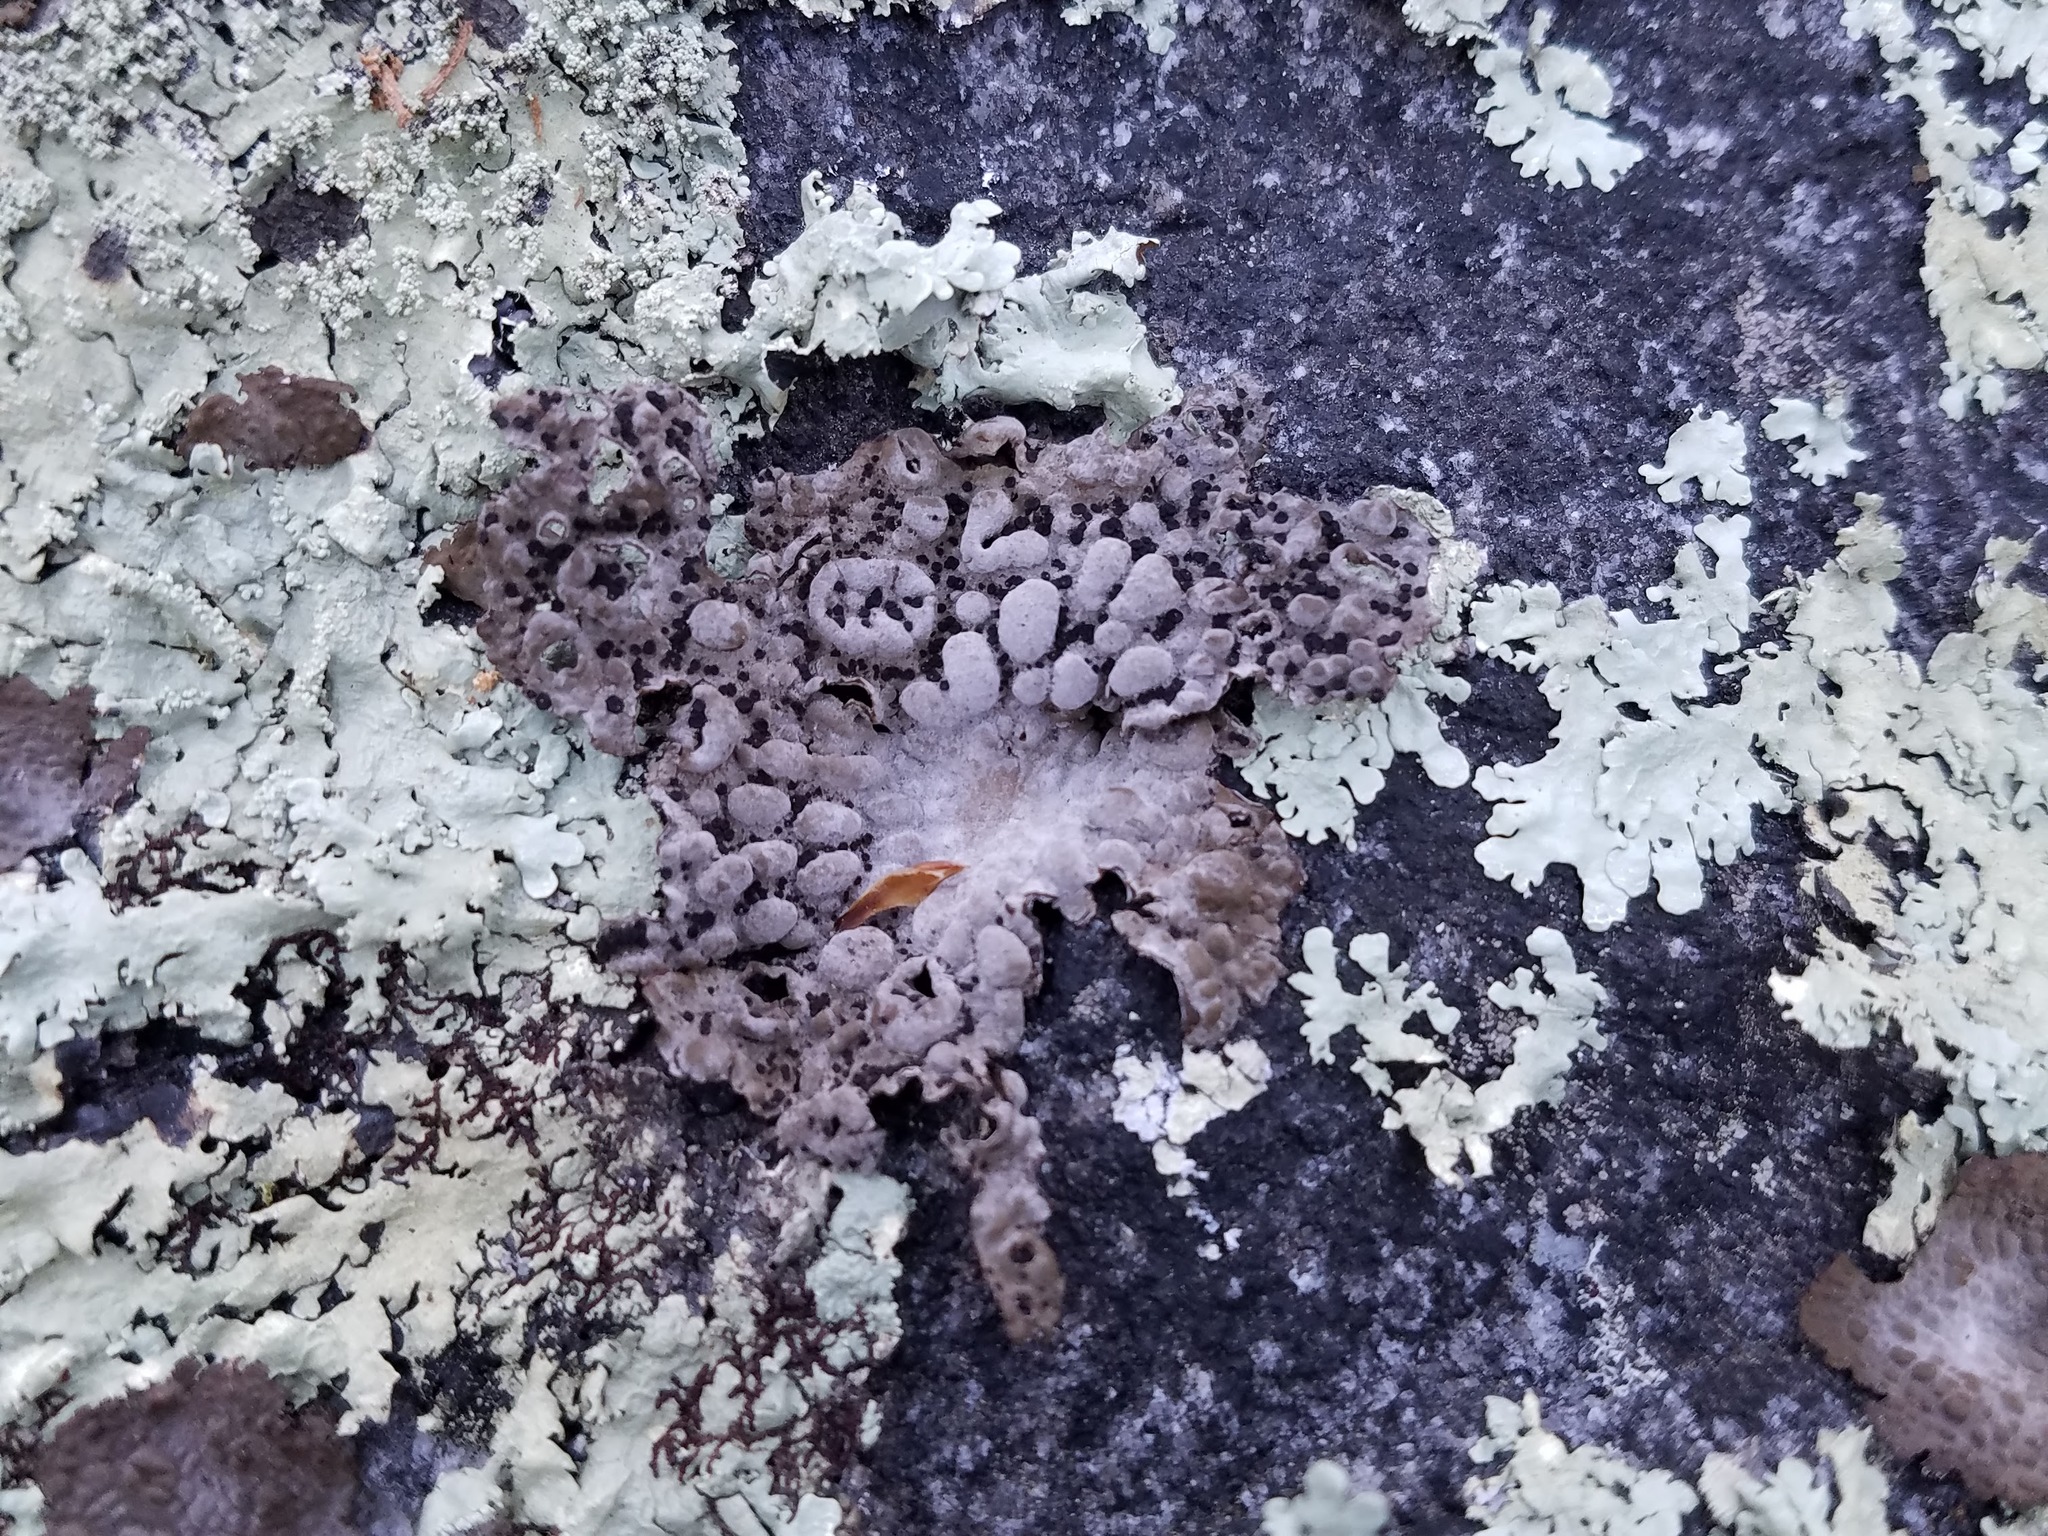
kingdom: Fungi
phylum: Ascomycota
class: Lecanoromycetes
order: Umbilicariales
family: Umbilicariaceae
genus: Lasallia
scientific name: Lasallia papulosa
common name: Common toadskin lichen
